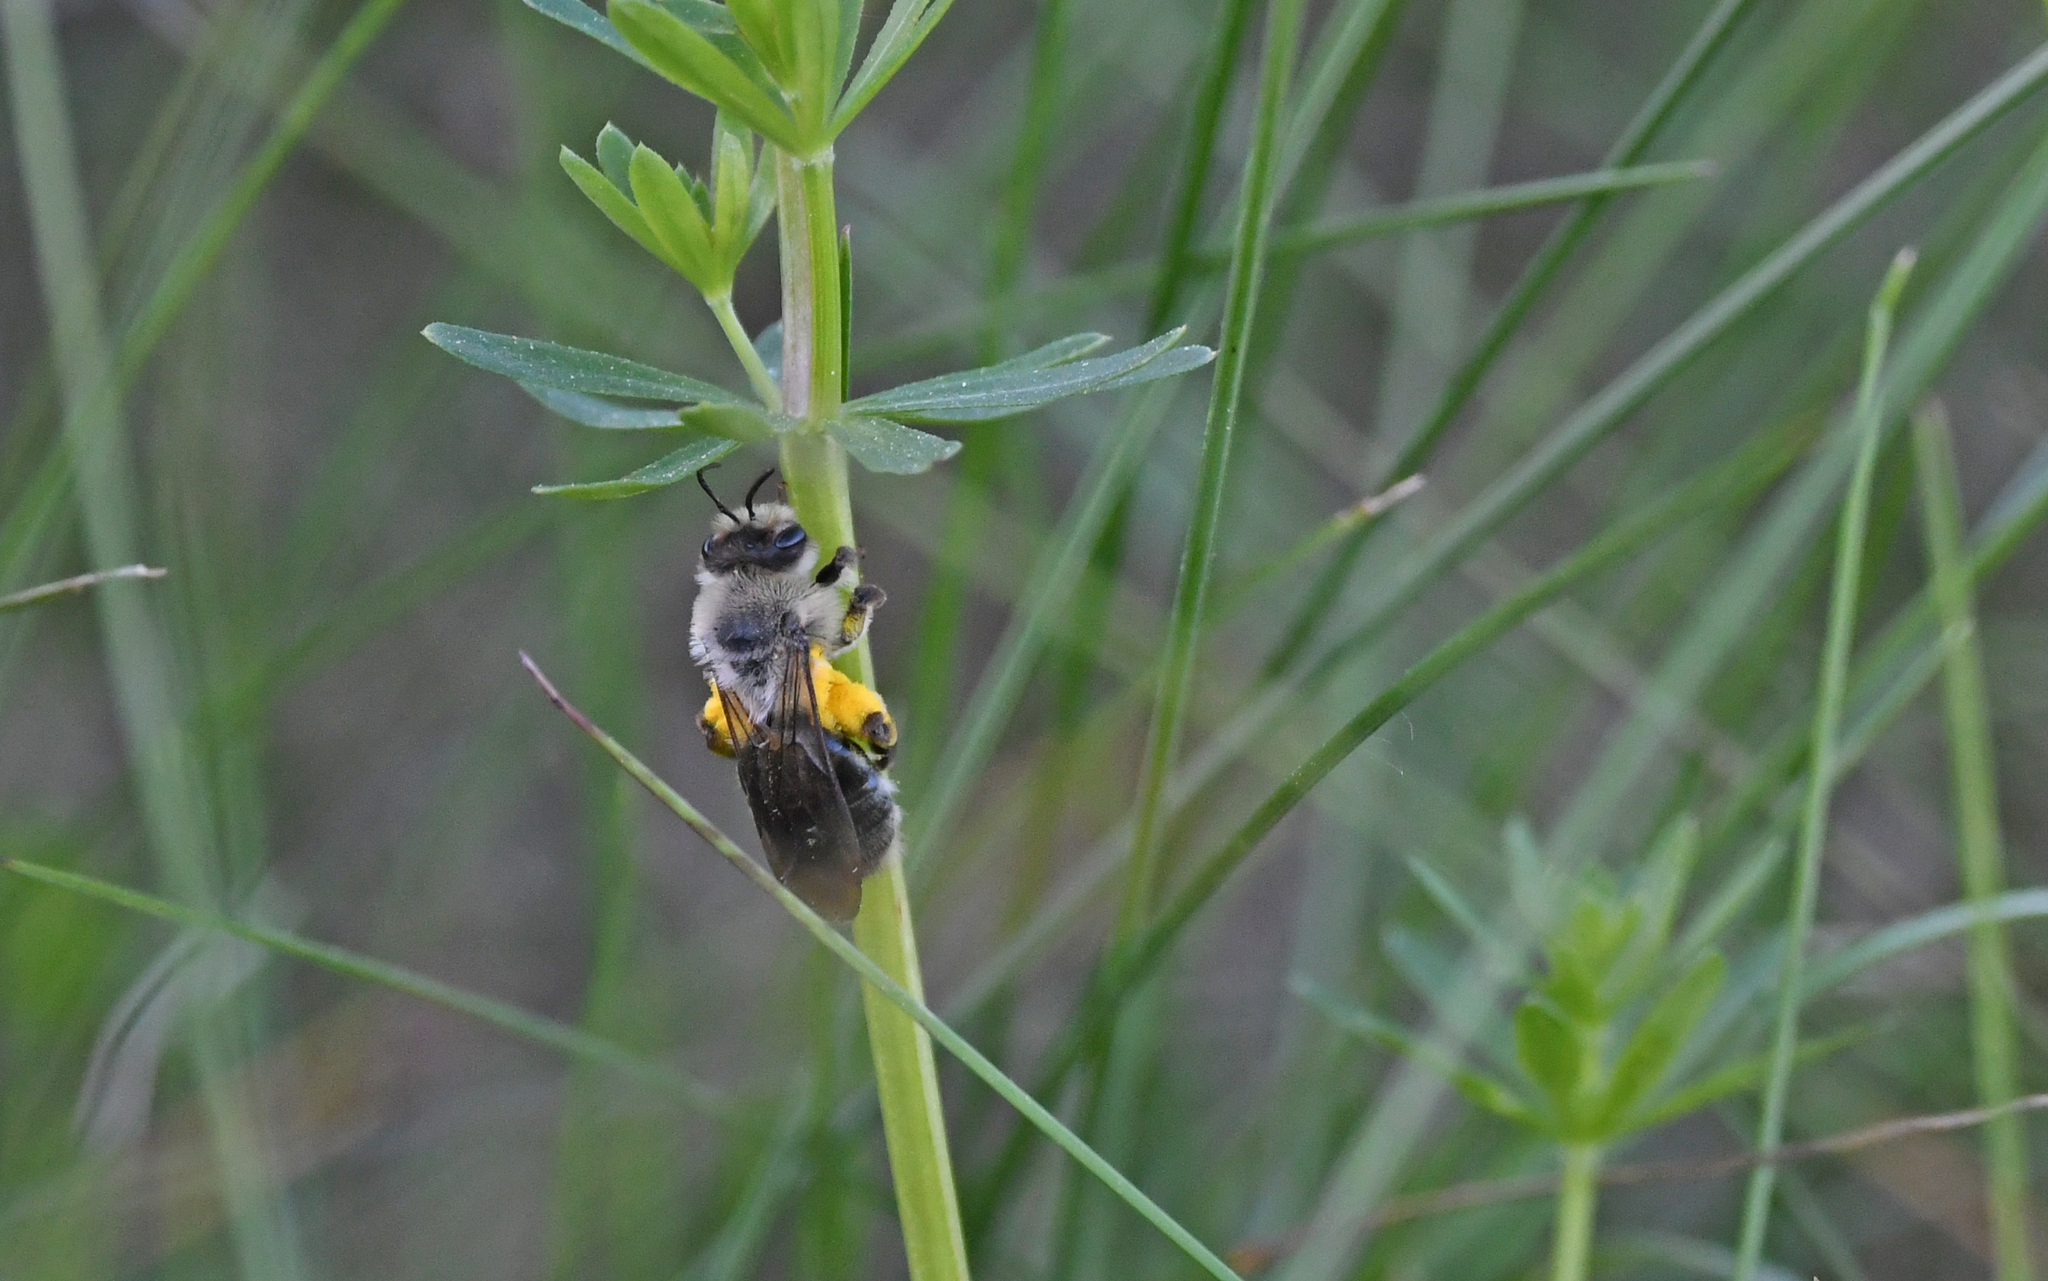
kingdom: Animalia
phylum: Arthropoda
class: Insecta
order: Hymenoptera
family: Andrenidae
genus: Andrena
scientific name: Andrena vaga
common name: Grey-backed mining bee
